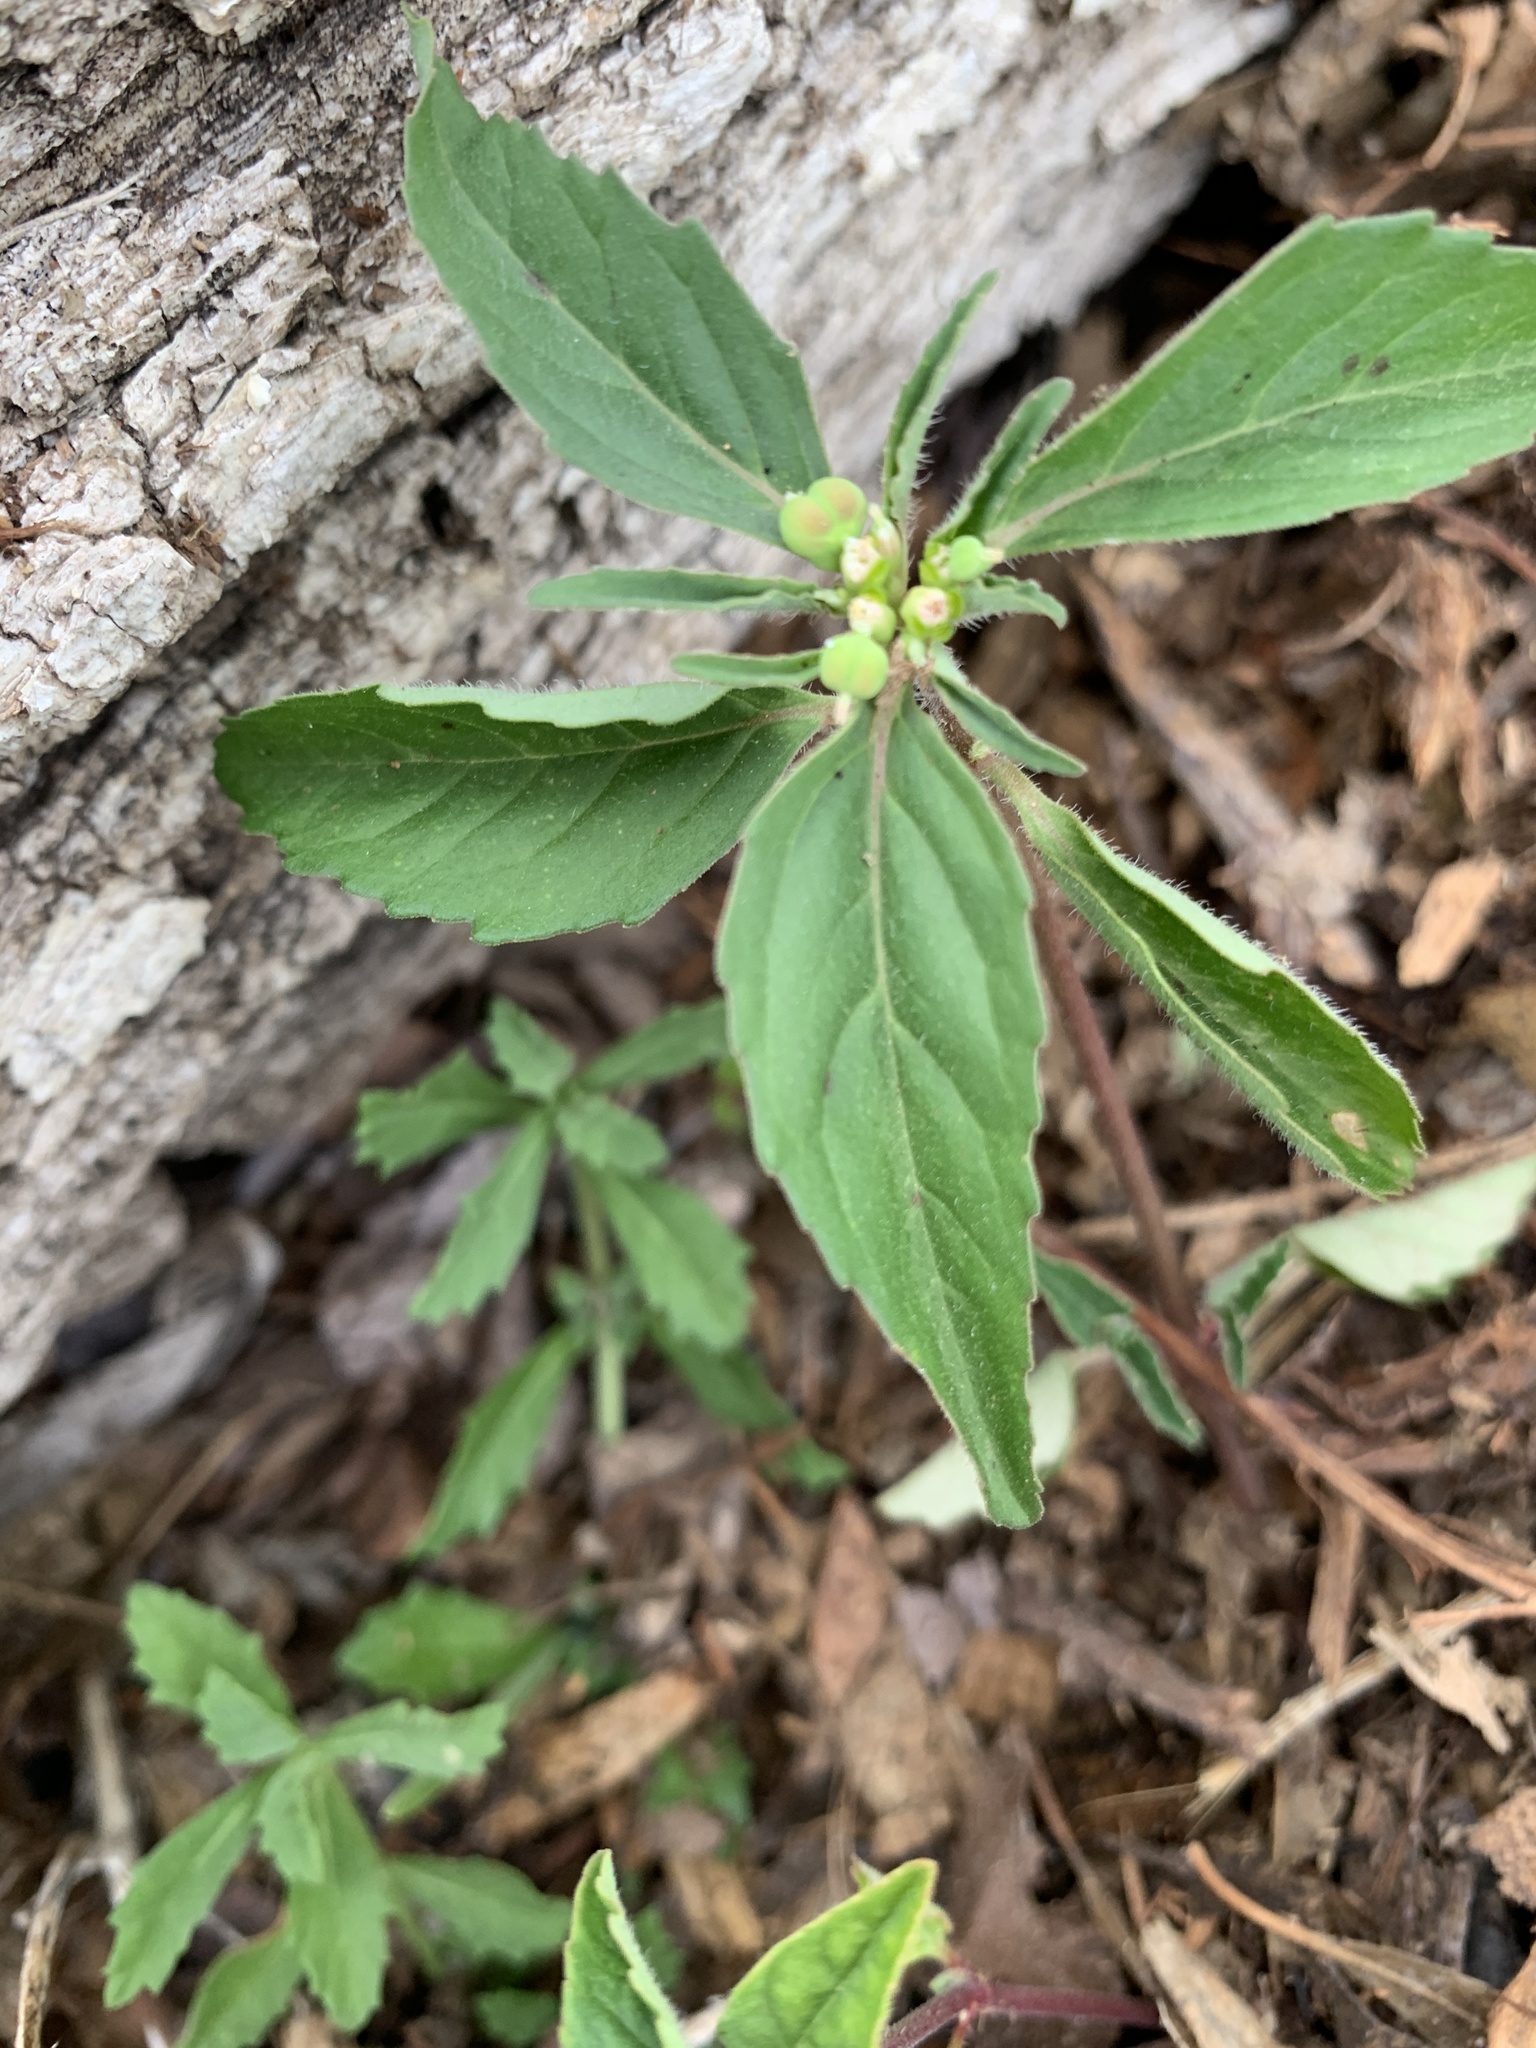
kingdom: Plantae
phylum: Tracheophyta
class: Magnoliopsida
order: Malpighiales
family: Euphorbiaceae
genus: Euphorbia
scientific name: Euphorbia davidii
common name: David's spurge
